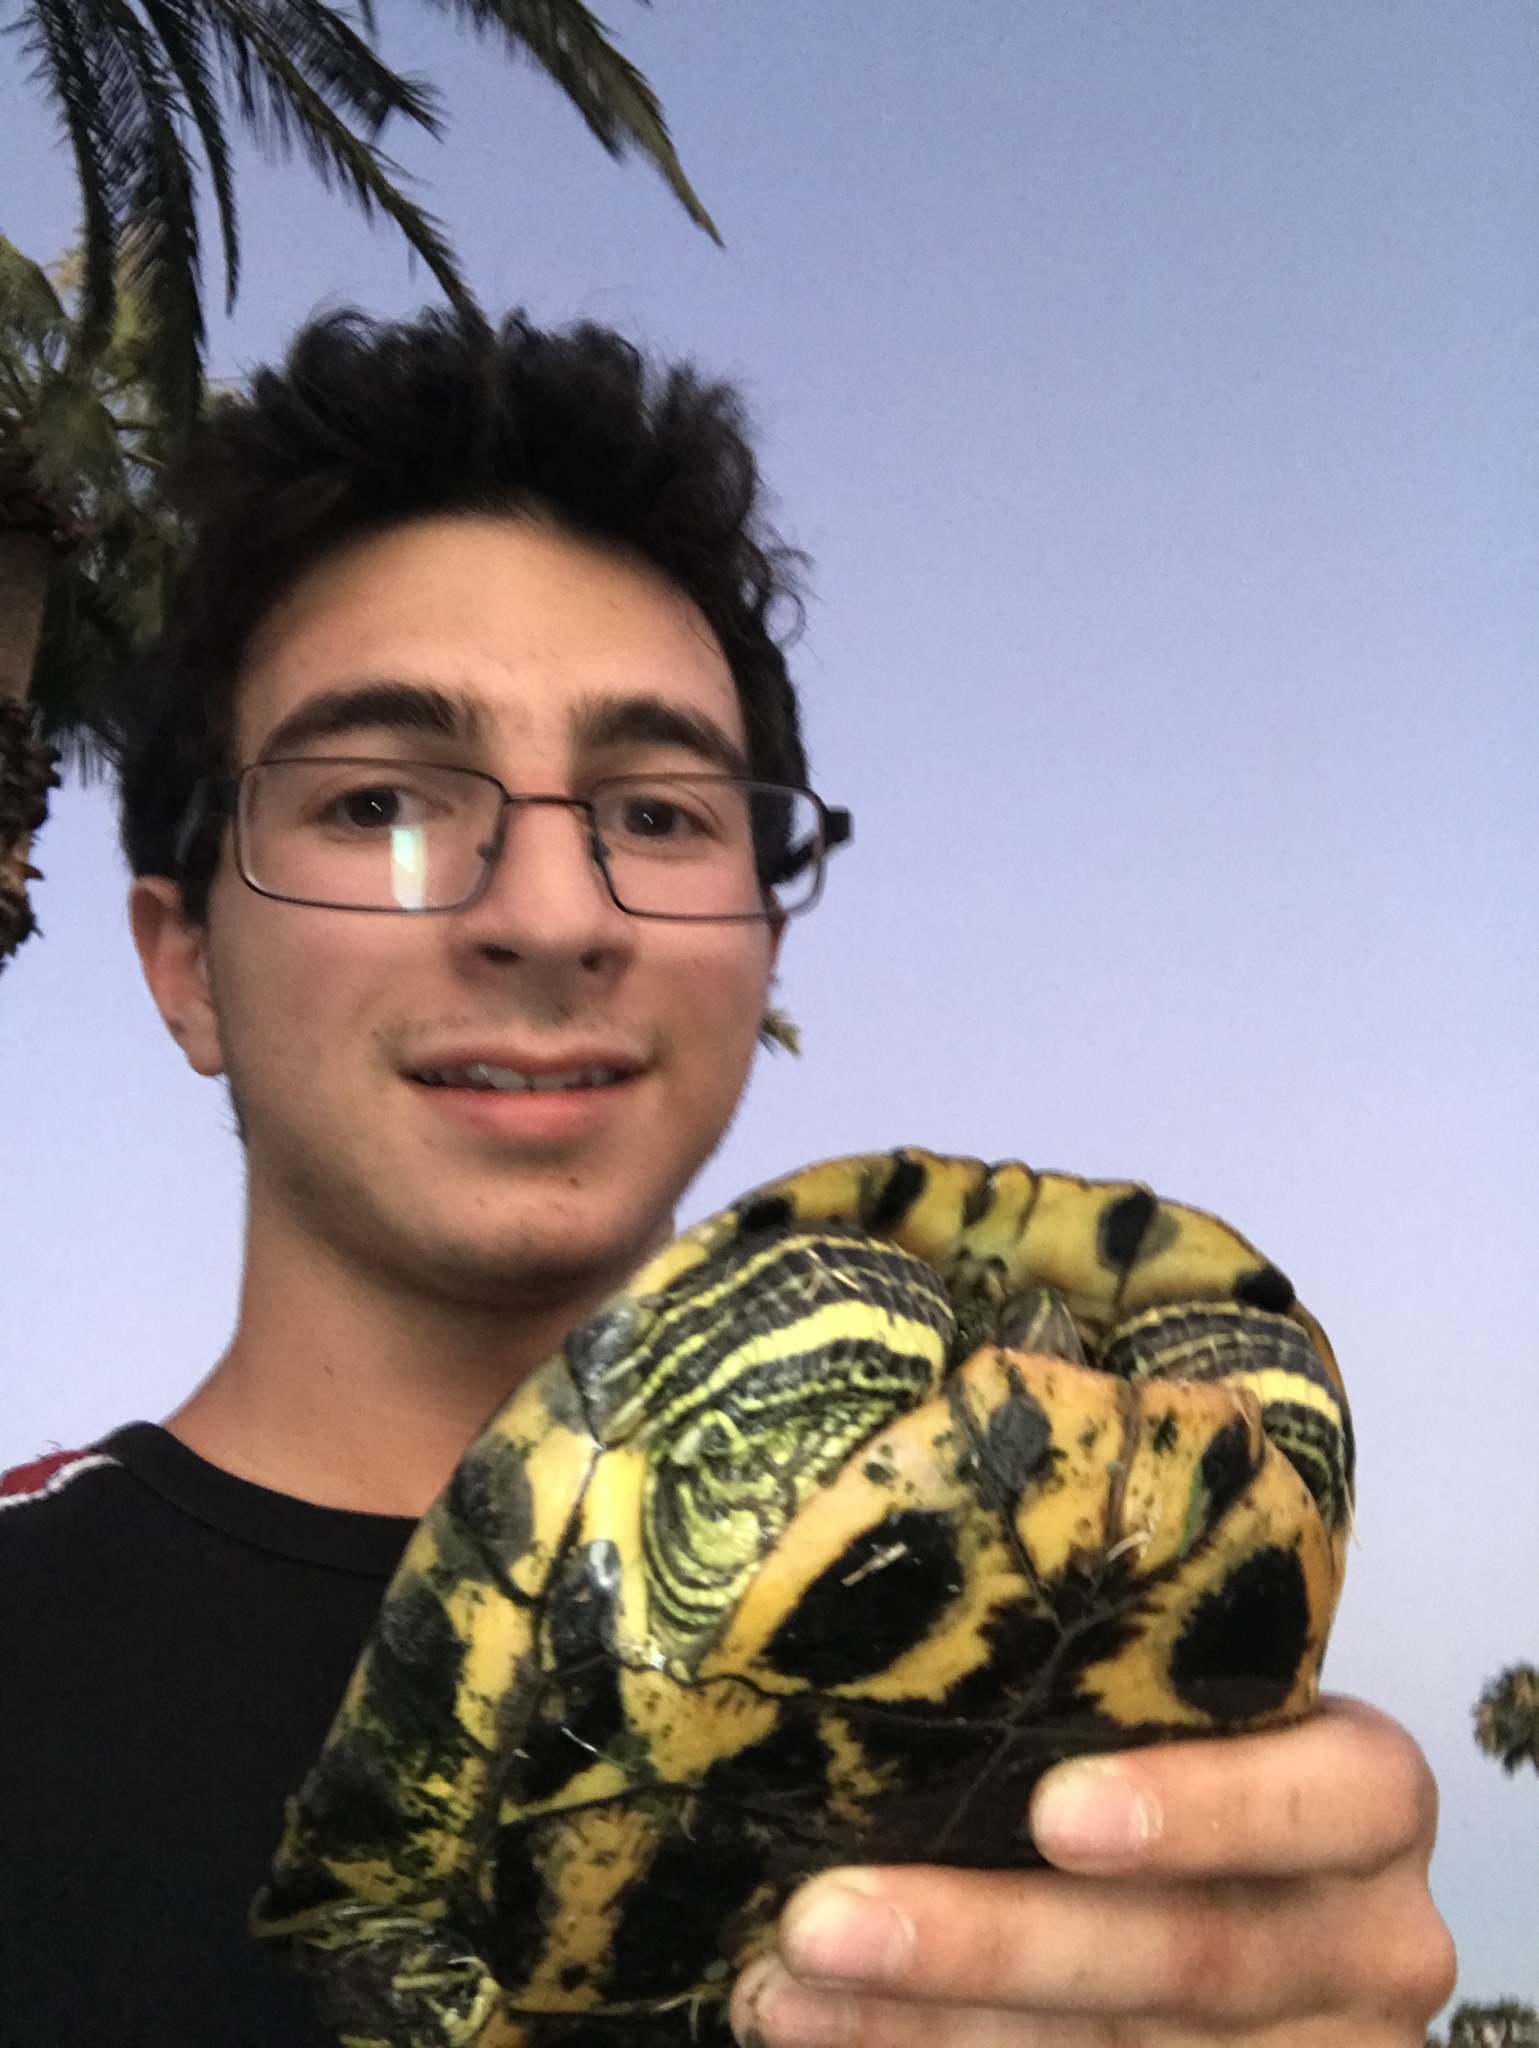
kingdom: Animalia
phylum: Chordata
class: Testudines
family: Emydidae
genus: Trachemys
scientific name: Trachemys scripta
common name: Slider
